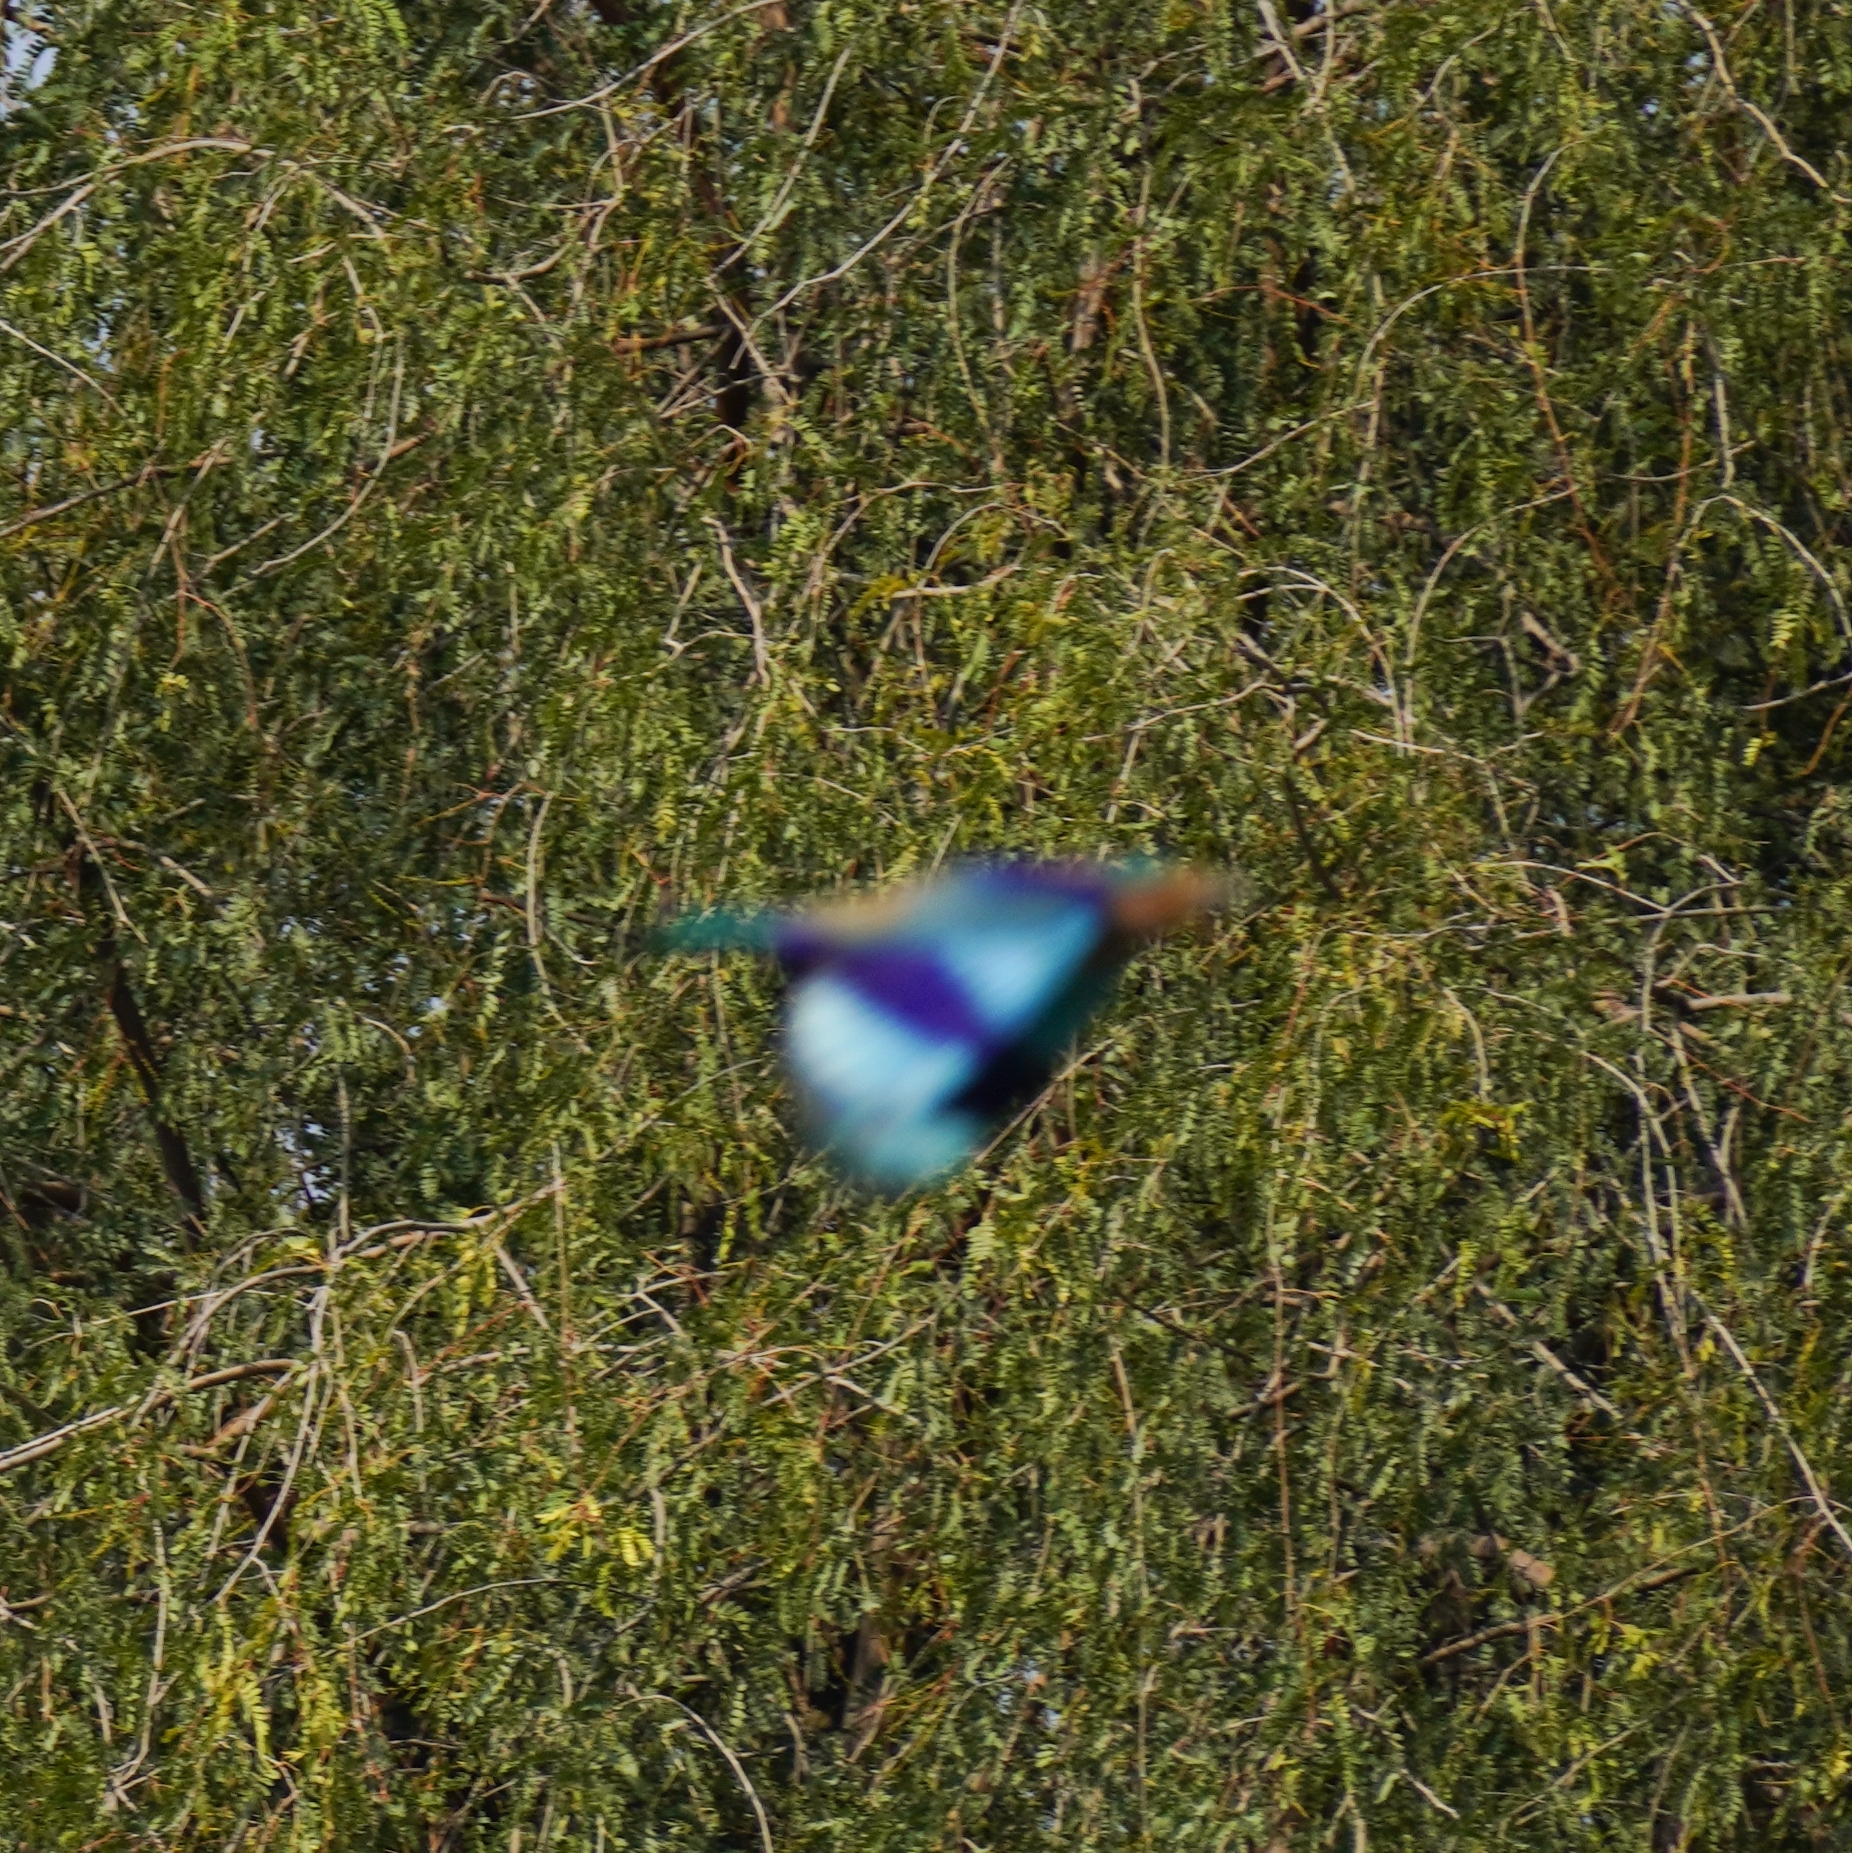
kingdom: Animalia
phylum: Chordata
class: Aves
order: Coraciiformes
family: Coraciidae
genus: Coracias
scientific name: Coracias benghalensis
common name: Indian roller
